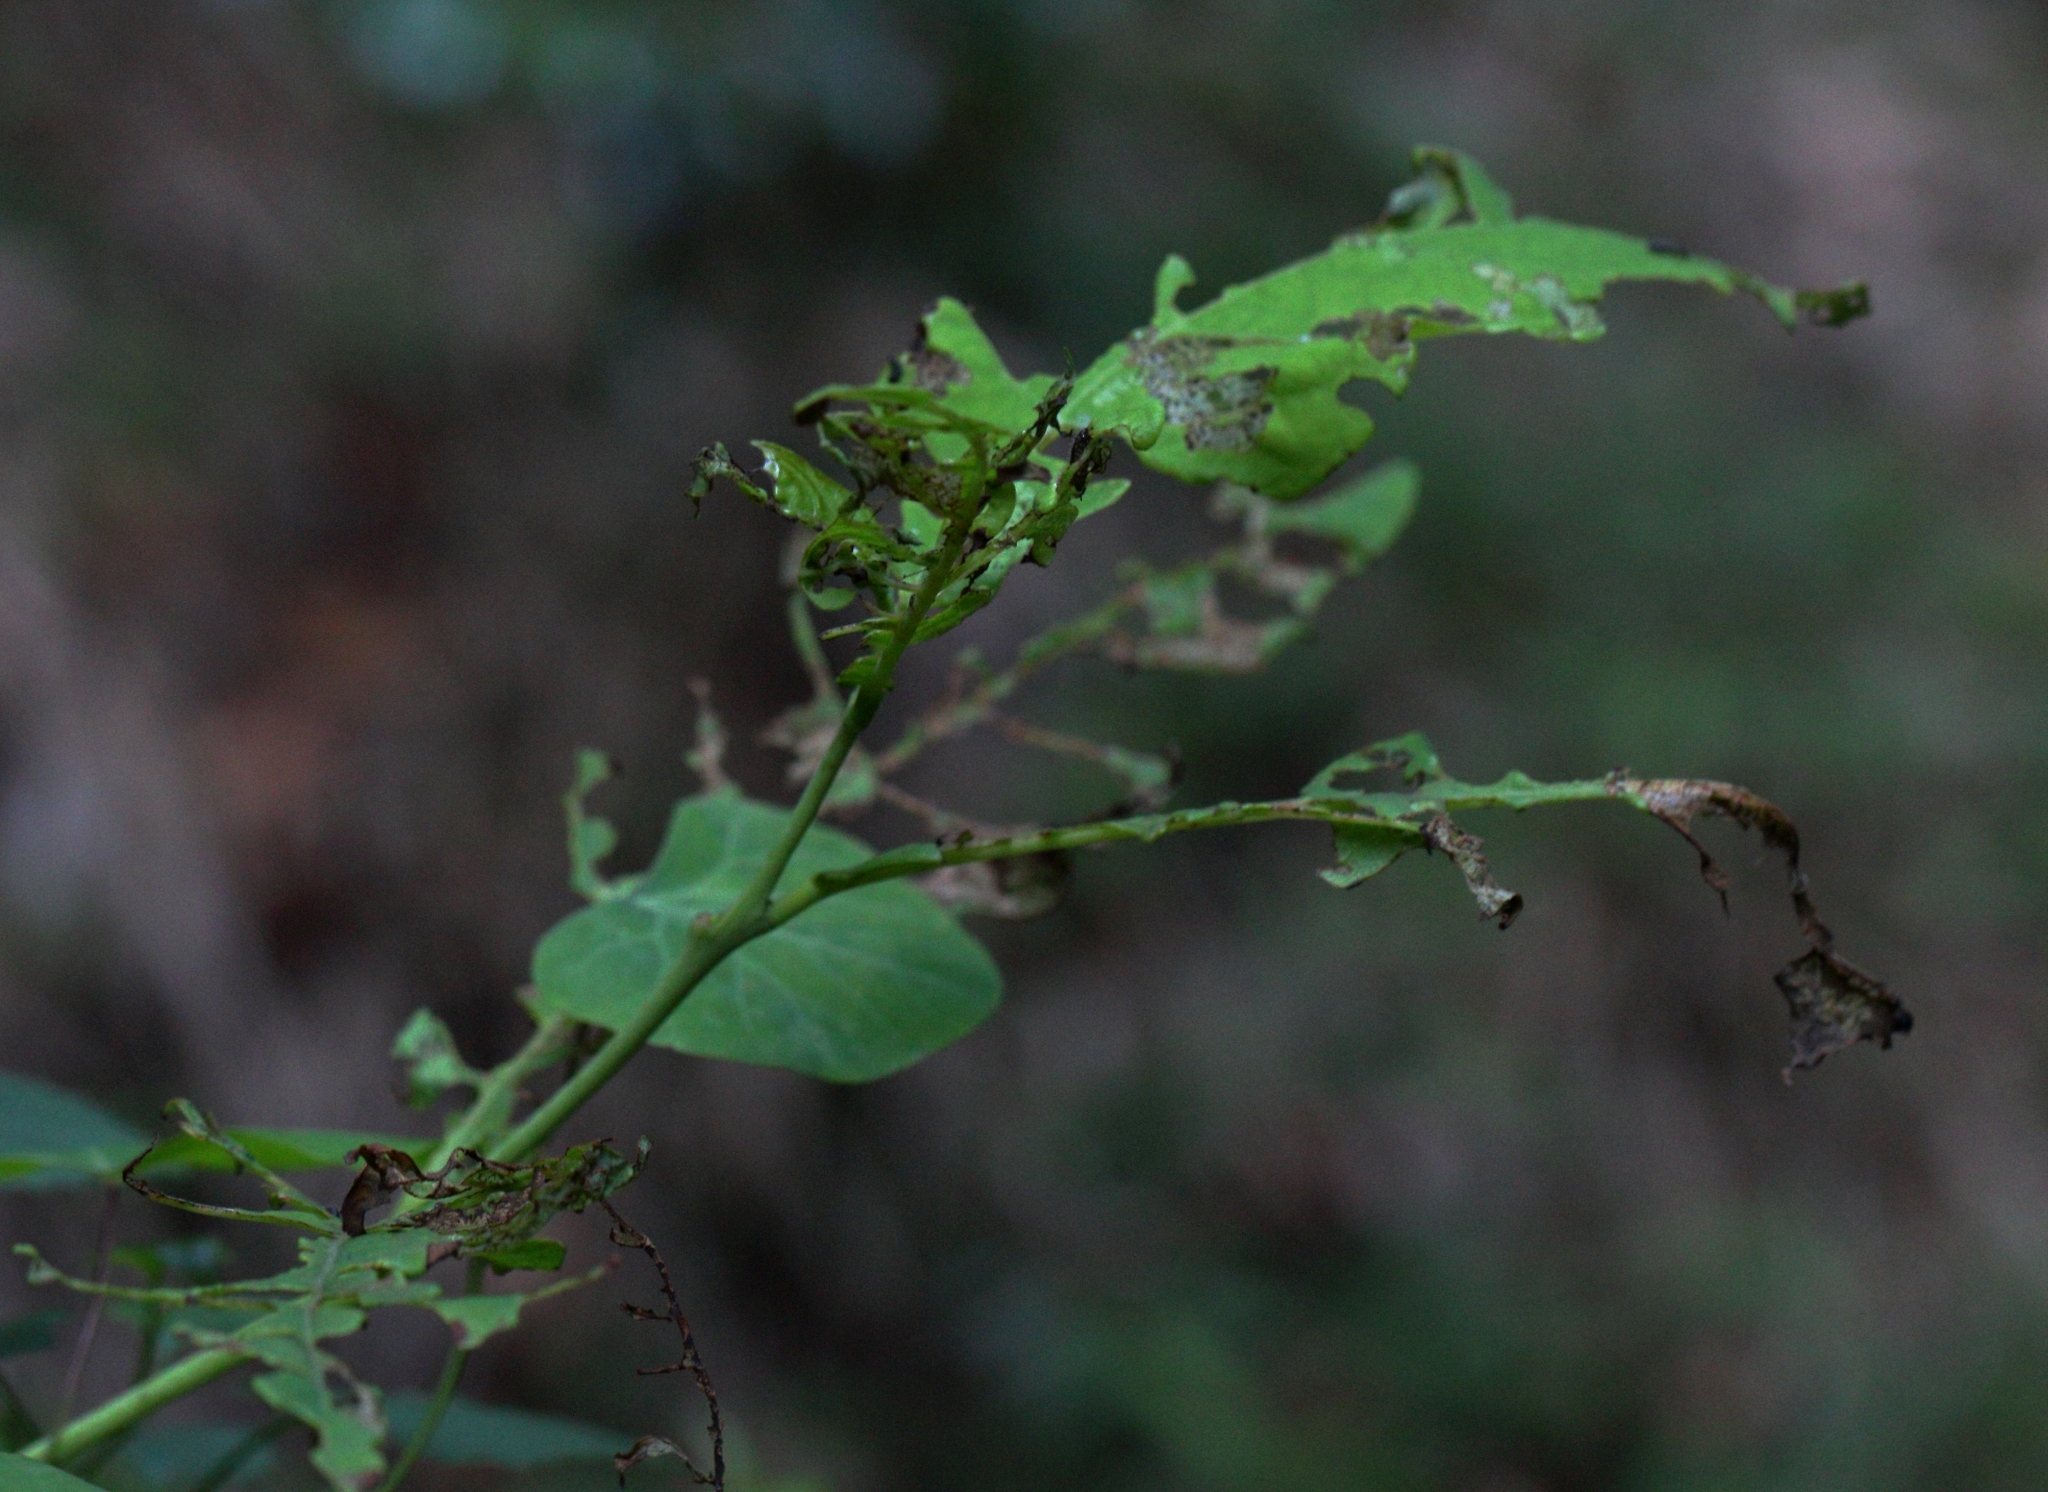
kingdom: Plantae
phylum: Tracheophyta
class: Magnoliopsida
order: Malvales
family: Thymelaeaceae
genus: Dais
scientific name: Dais cotinifolia
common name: Pompon tree
